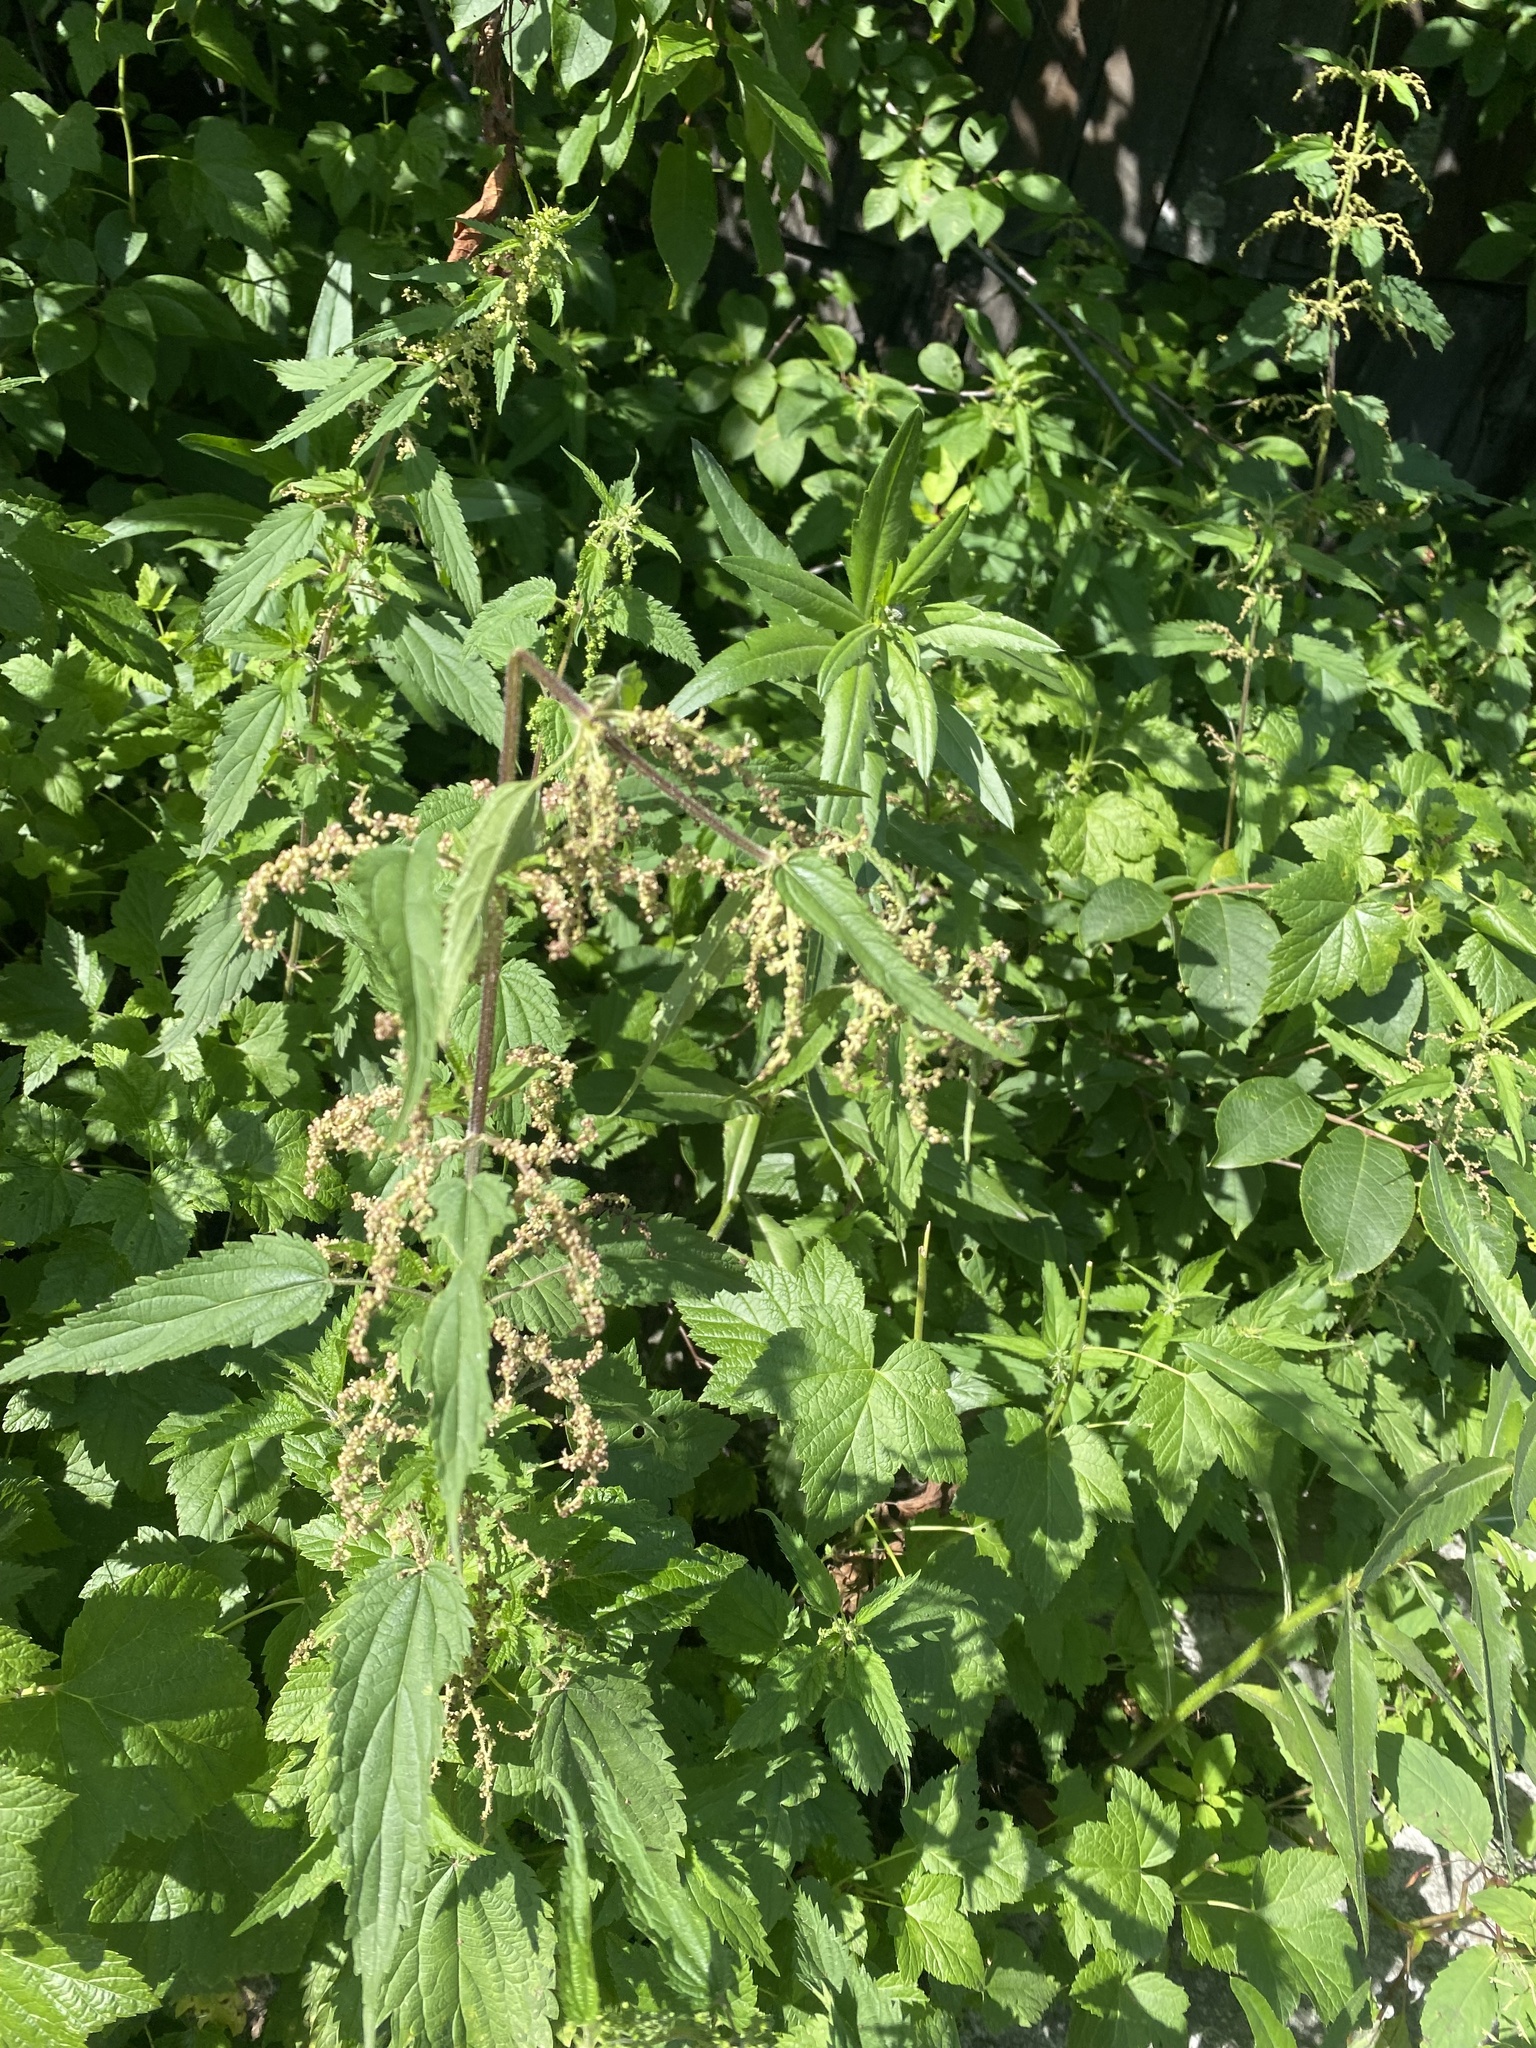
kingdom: Plantae
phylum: Tracheophyta
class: Magnoliopsida
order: Rosales
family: Urticaceae
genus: Urtica
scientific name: Urtica dioica
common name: Common nettle
